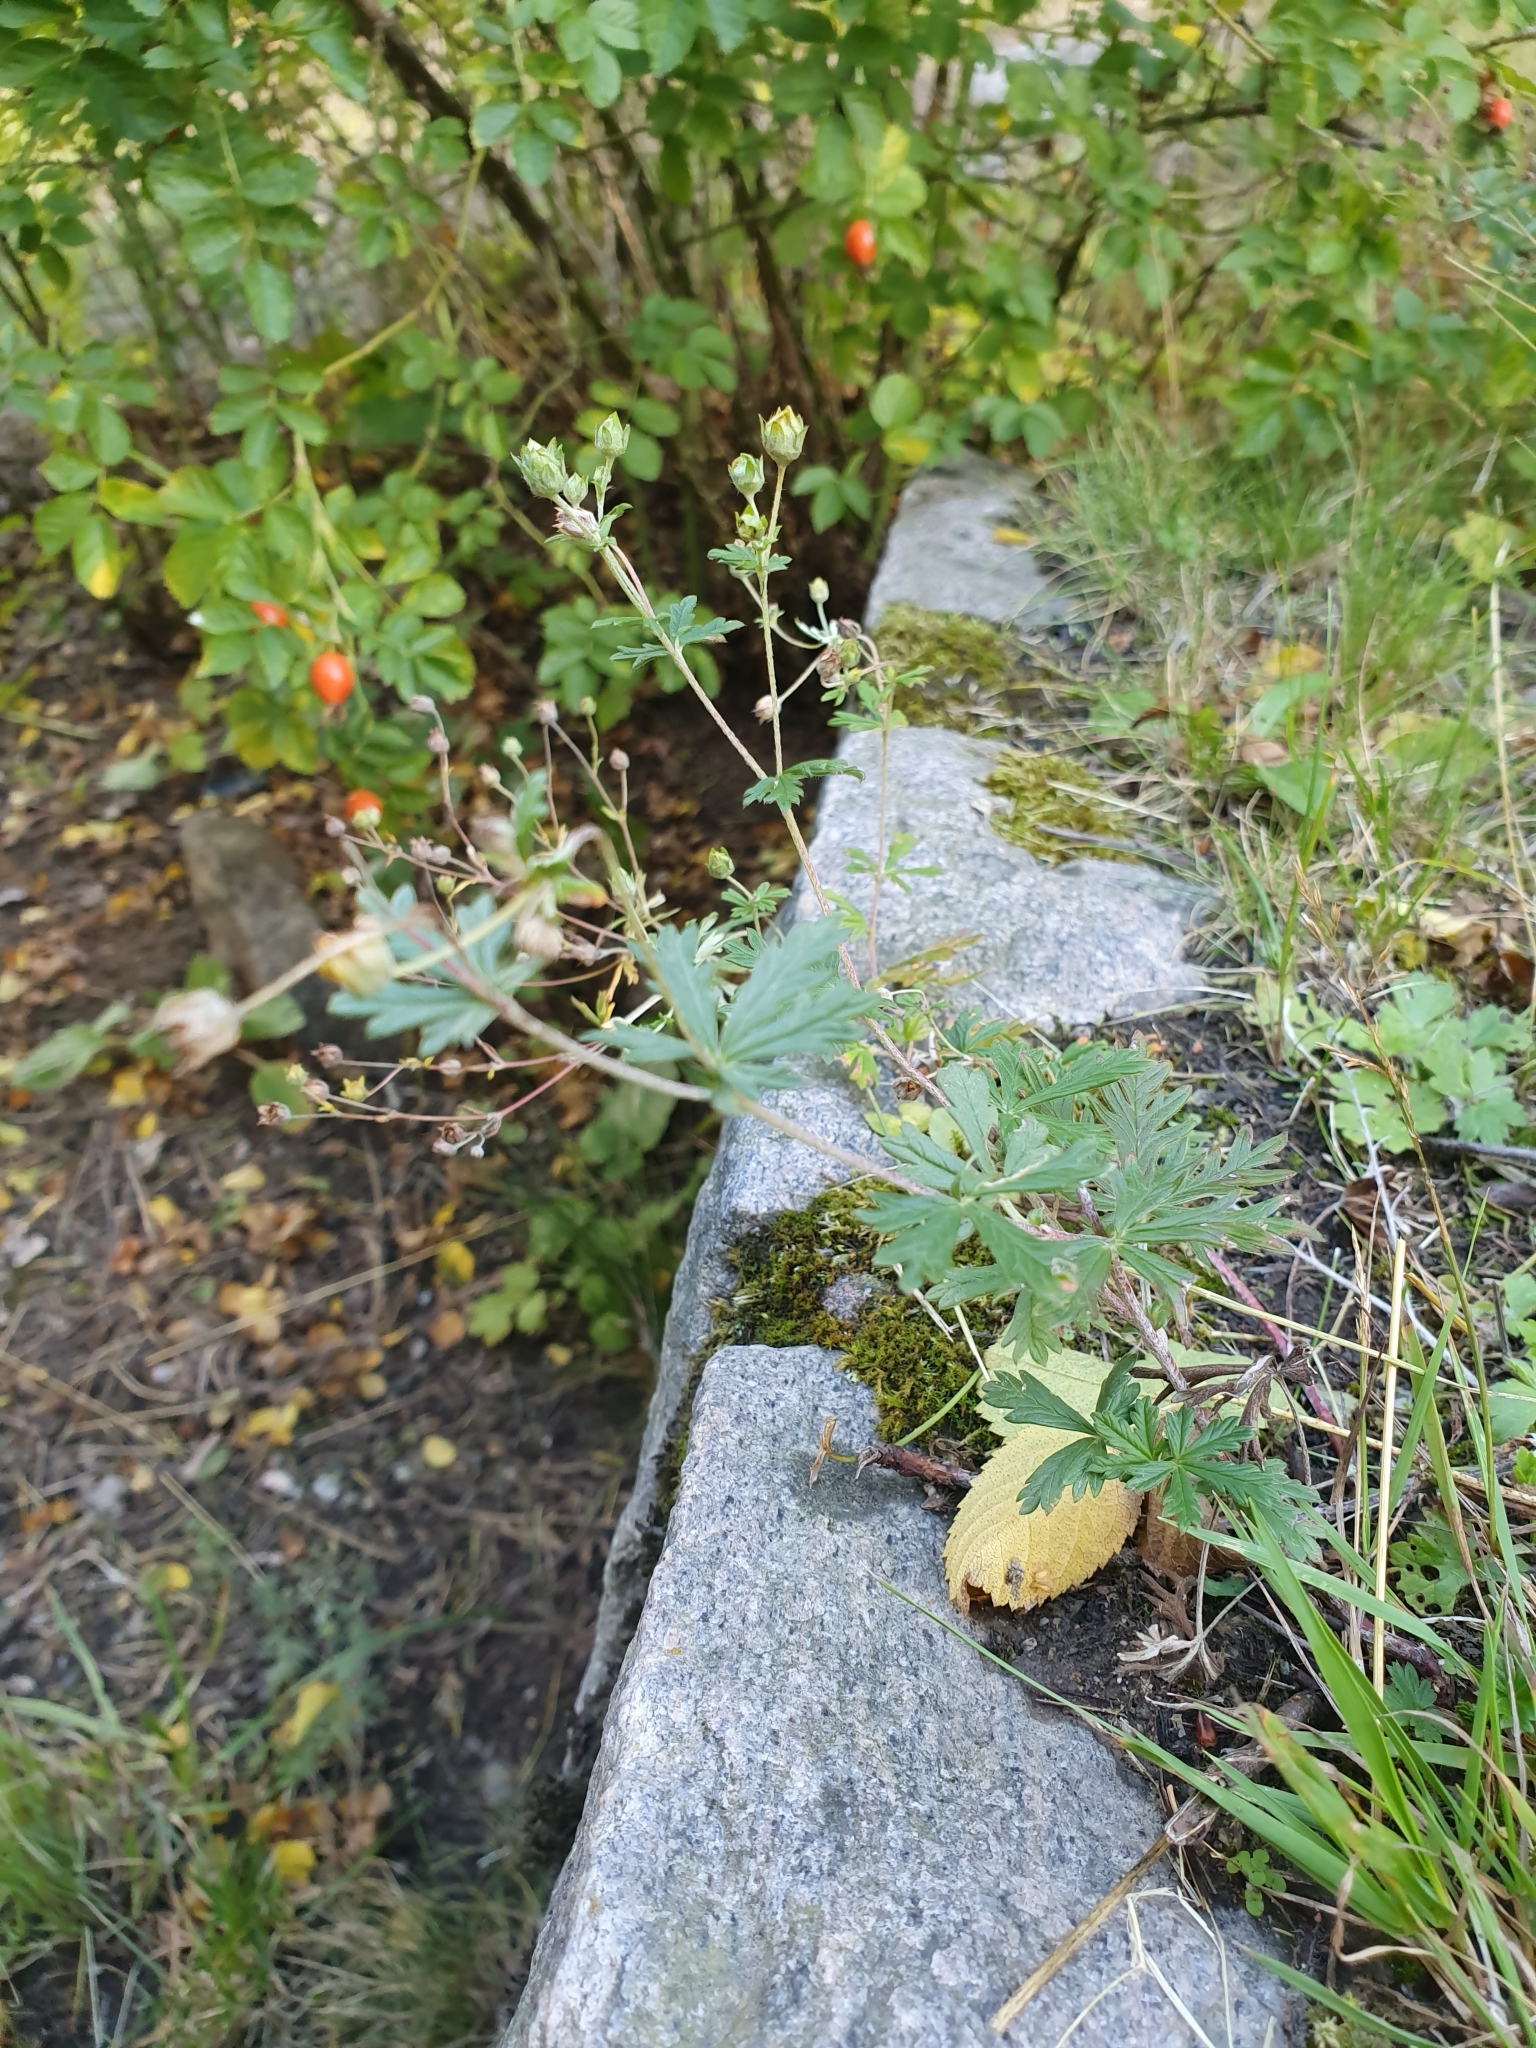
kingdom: Plantae
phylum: Tracheophyta
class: Magnoliopsida
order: Rosales
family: Rosaceae
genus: Potentilla
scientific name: Potentilla argentea
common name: Hoary cinquefoil
